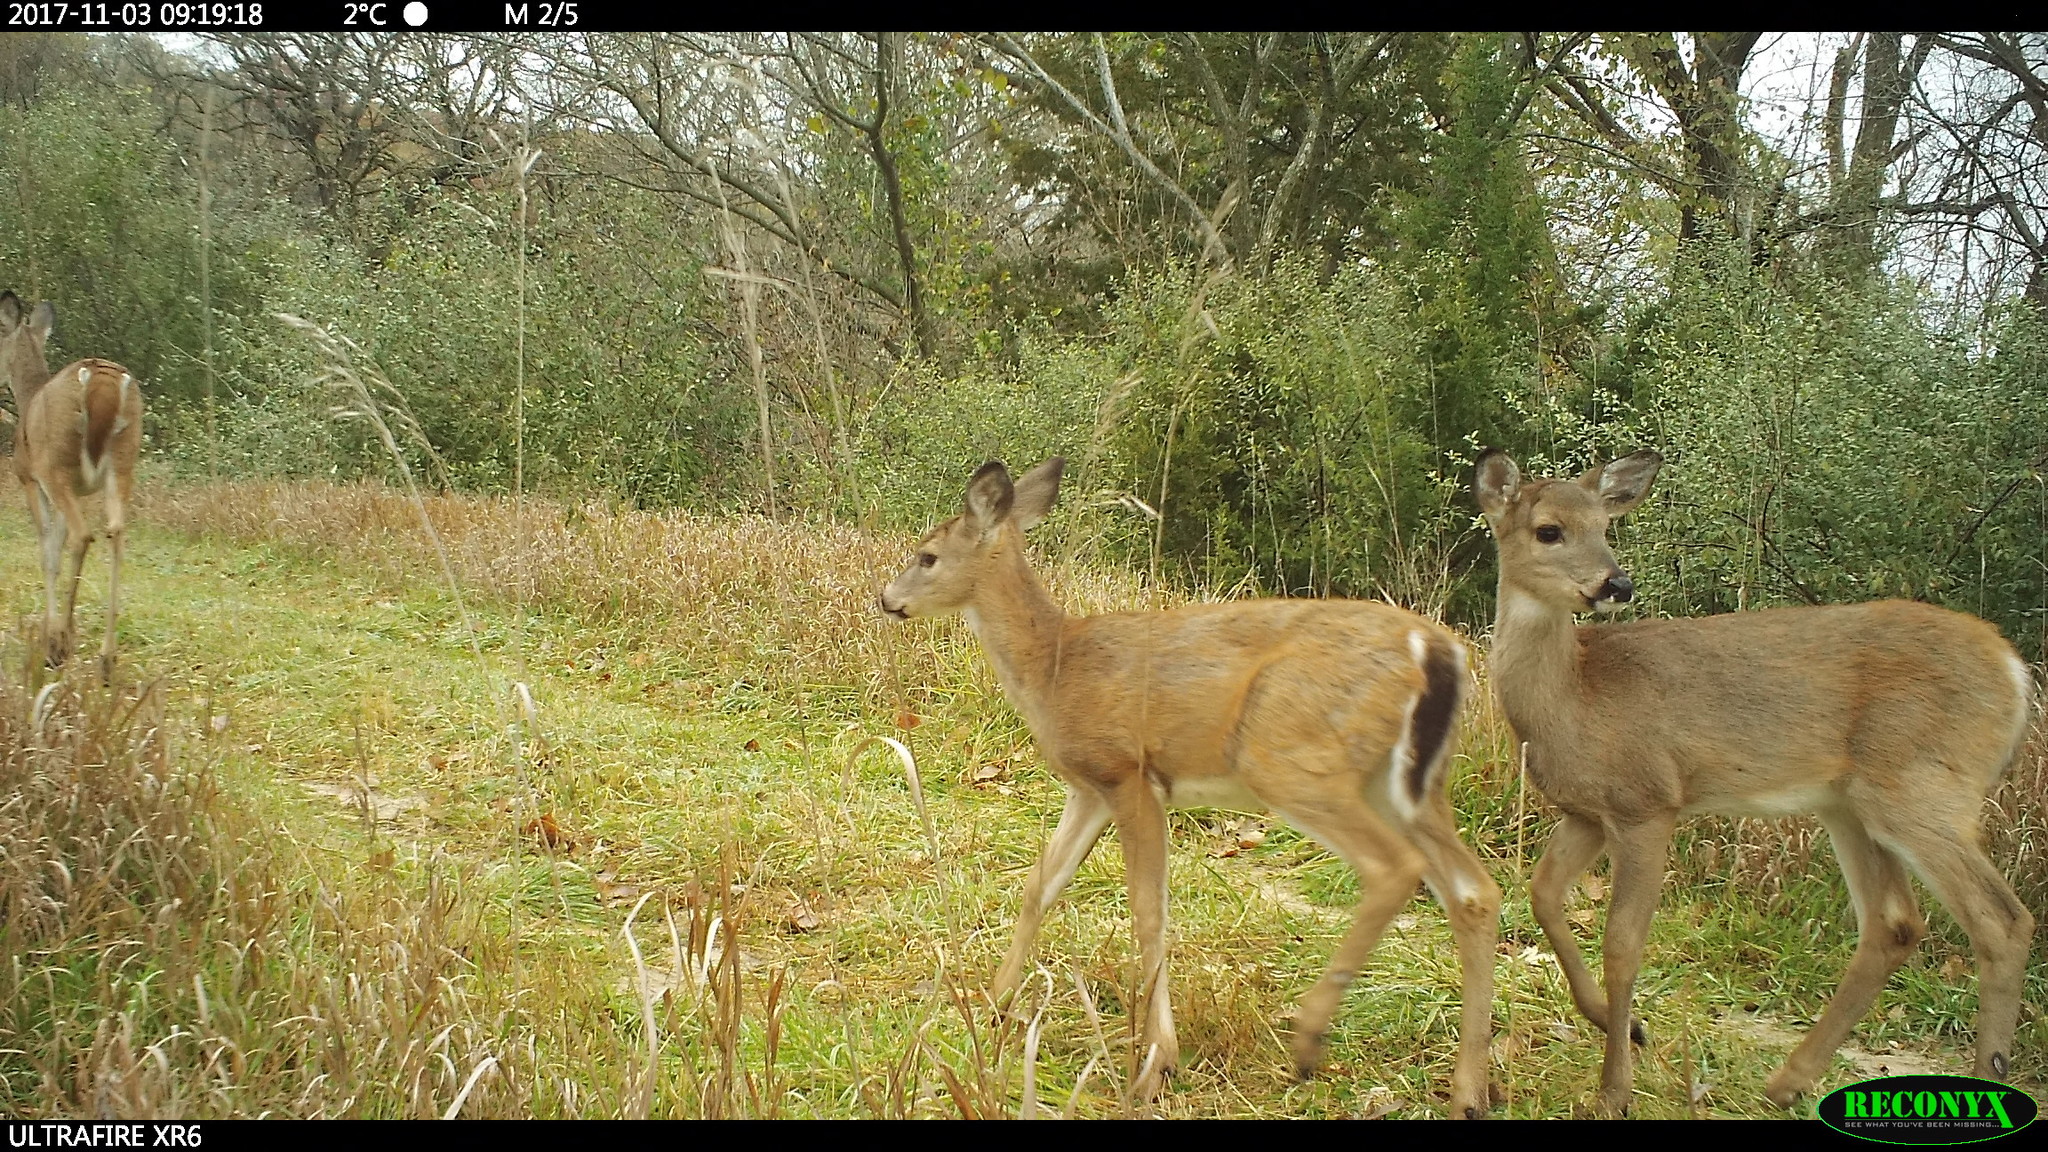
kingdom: Animalia
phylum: Chordata
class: Mammalia
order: Artiodactyla
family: Cervidae
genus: Odocoileus
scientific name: Odocoileus virginianus
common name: White-tailed deer
